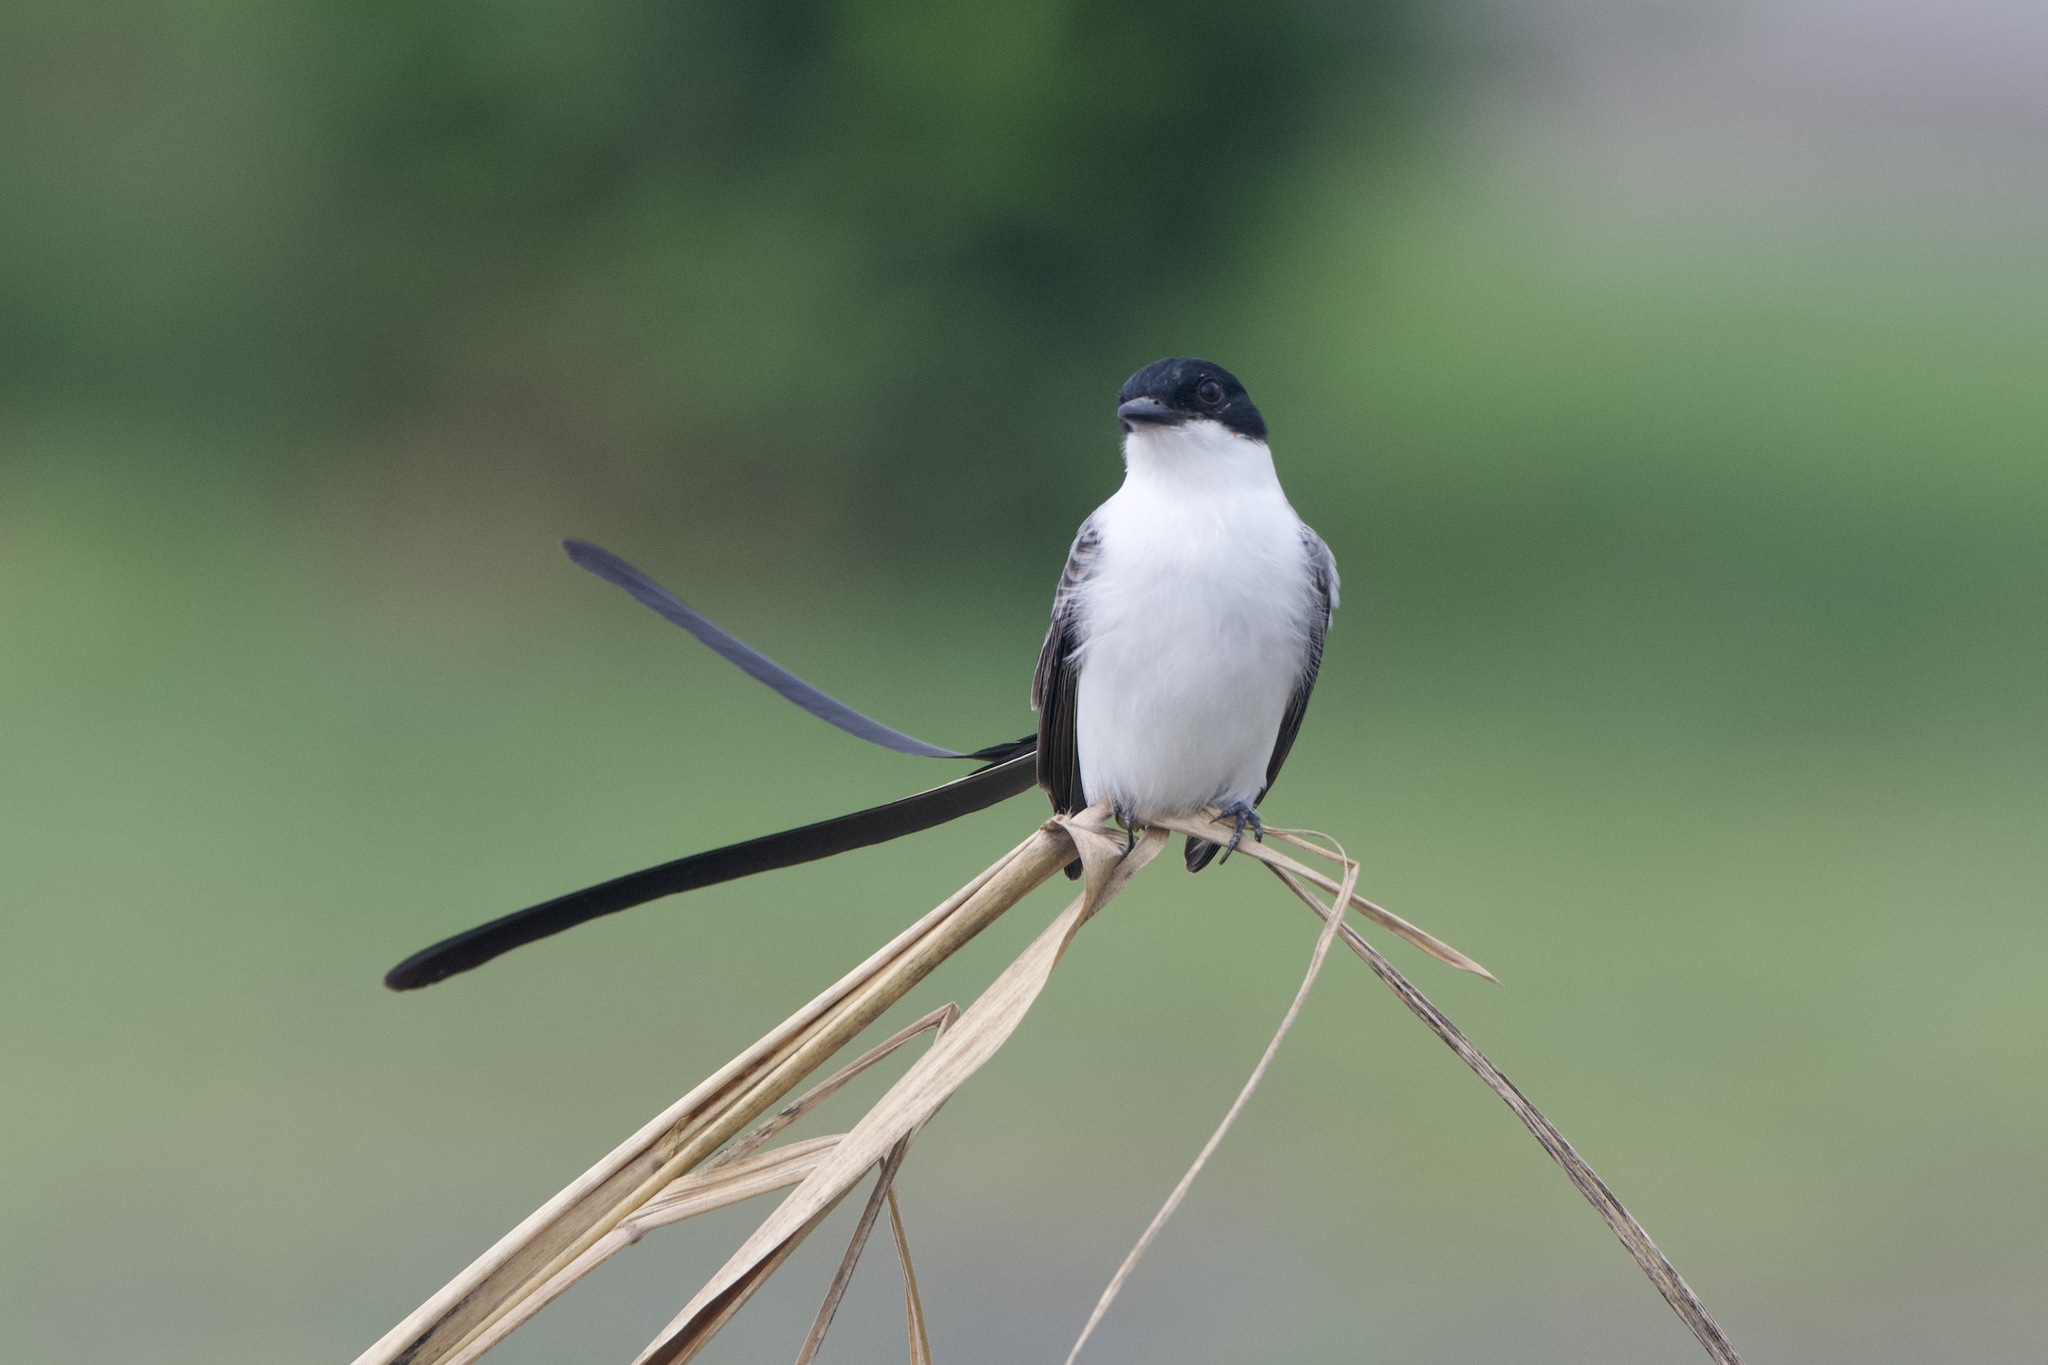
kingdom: Animalia
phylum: Chordata
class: Aves
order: Passeriformes
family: Tyrannidae
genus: Tyrannus
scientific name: Tyrannus savana
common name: Fork-tailed flycatcher
